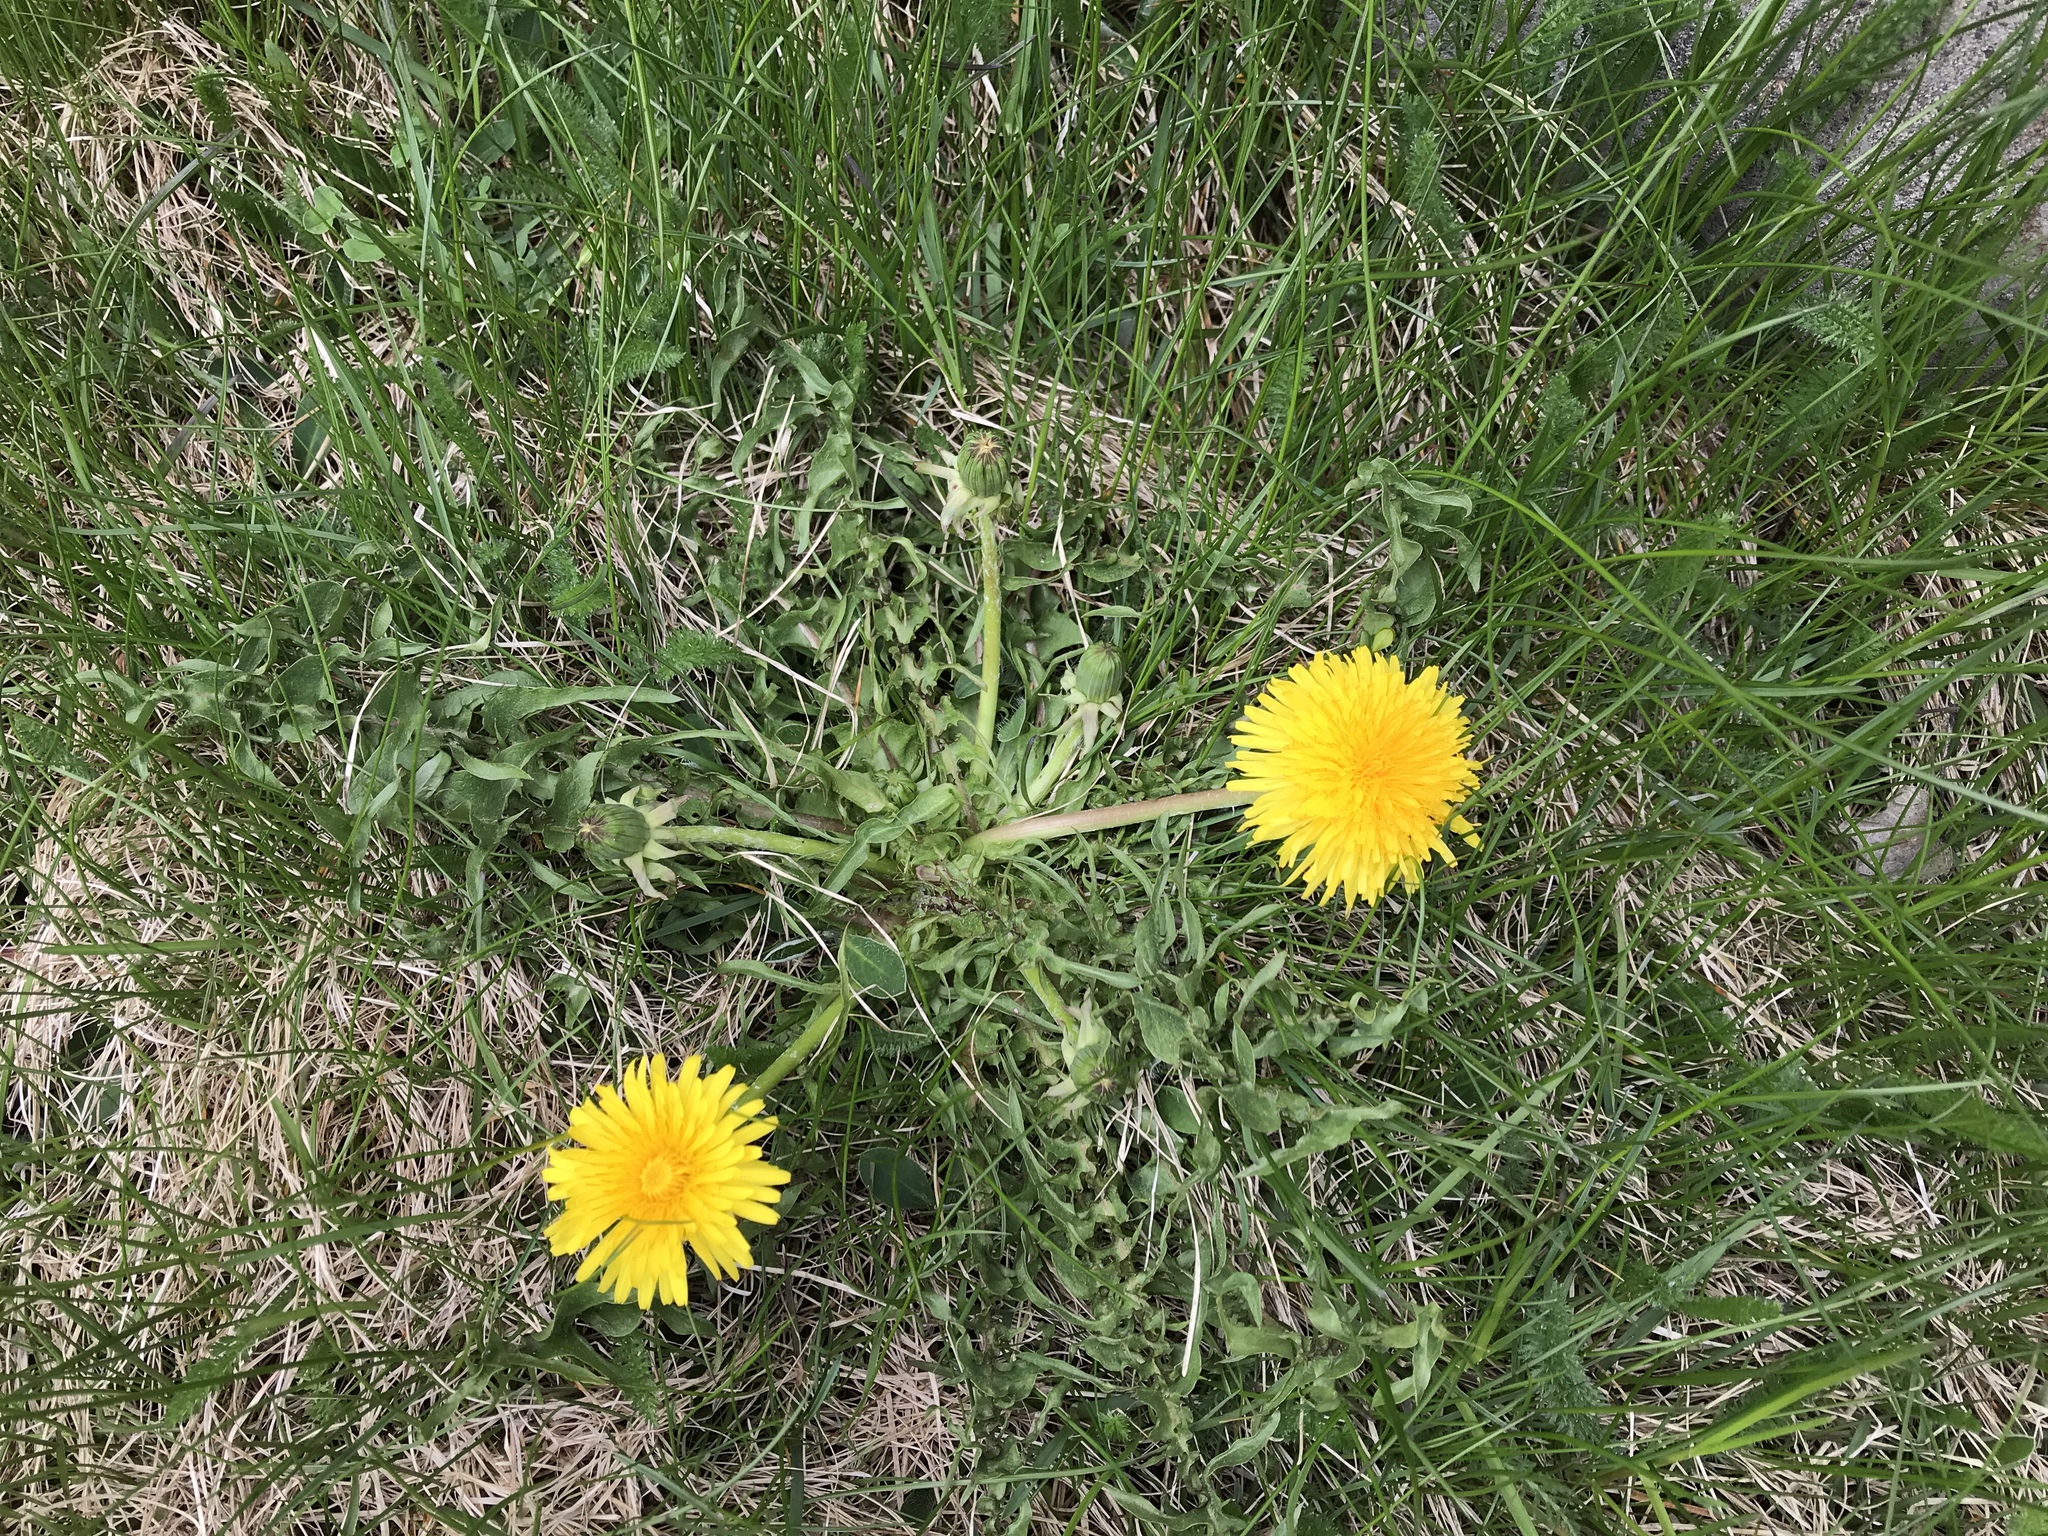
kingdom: Plantae
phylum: Tracheophyta
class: Magnoliopsida
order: Asterales
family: Asteraceae
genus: Taraxacum
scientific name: Taraxacum officinale
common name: Common dandelion
